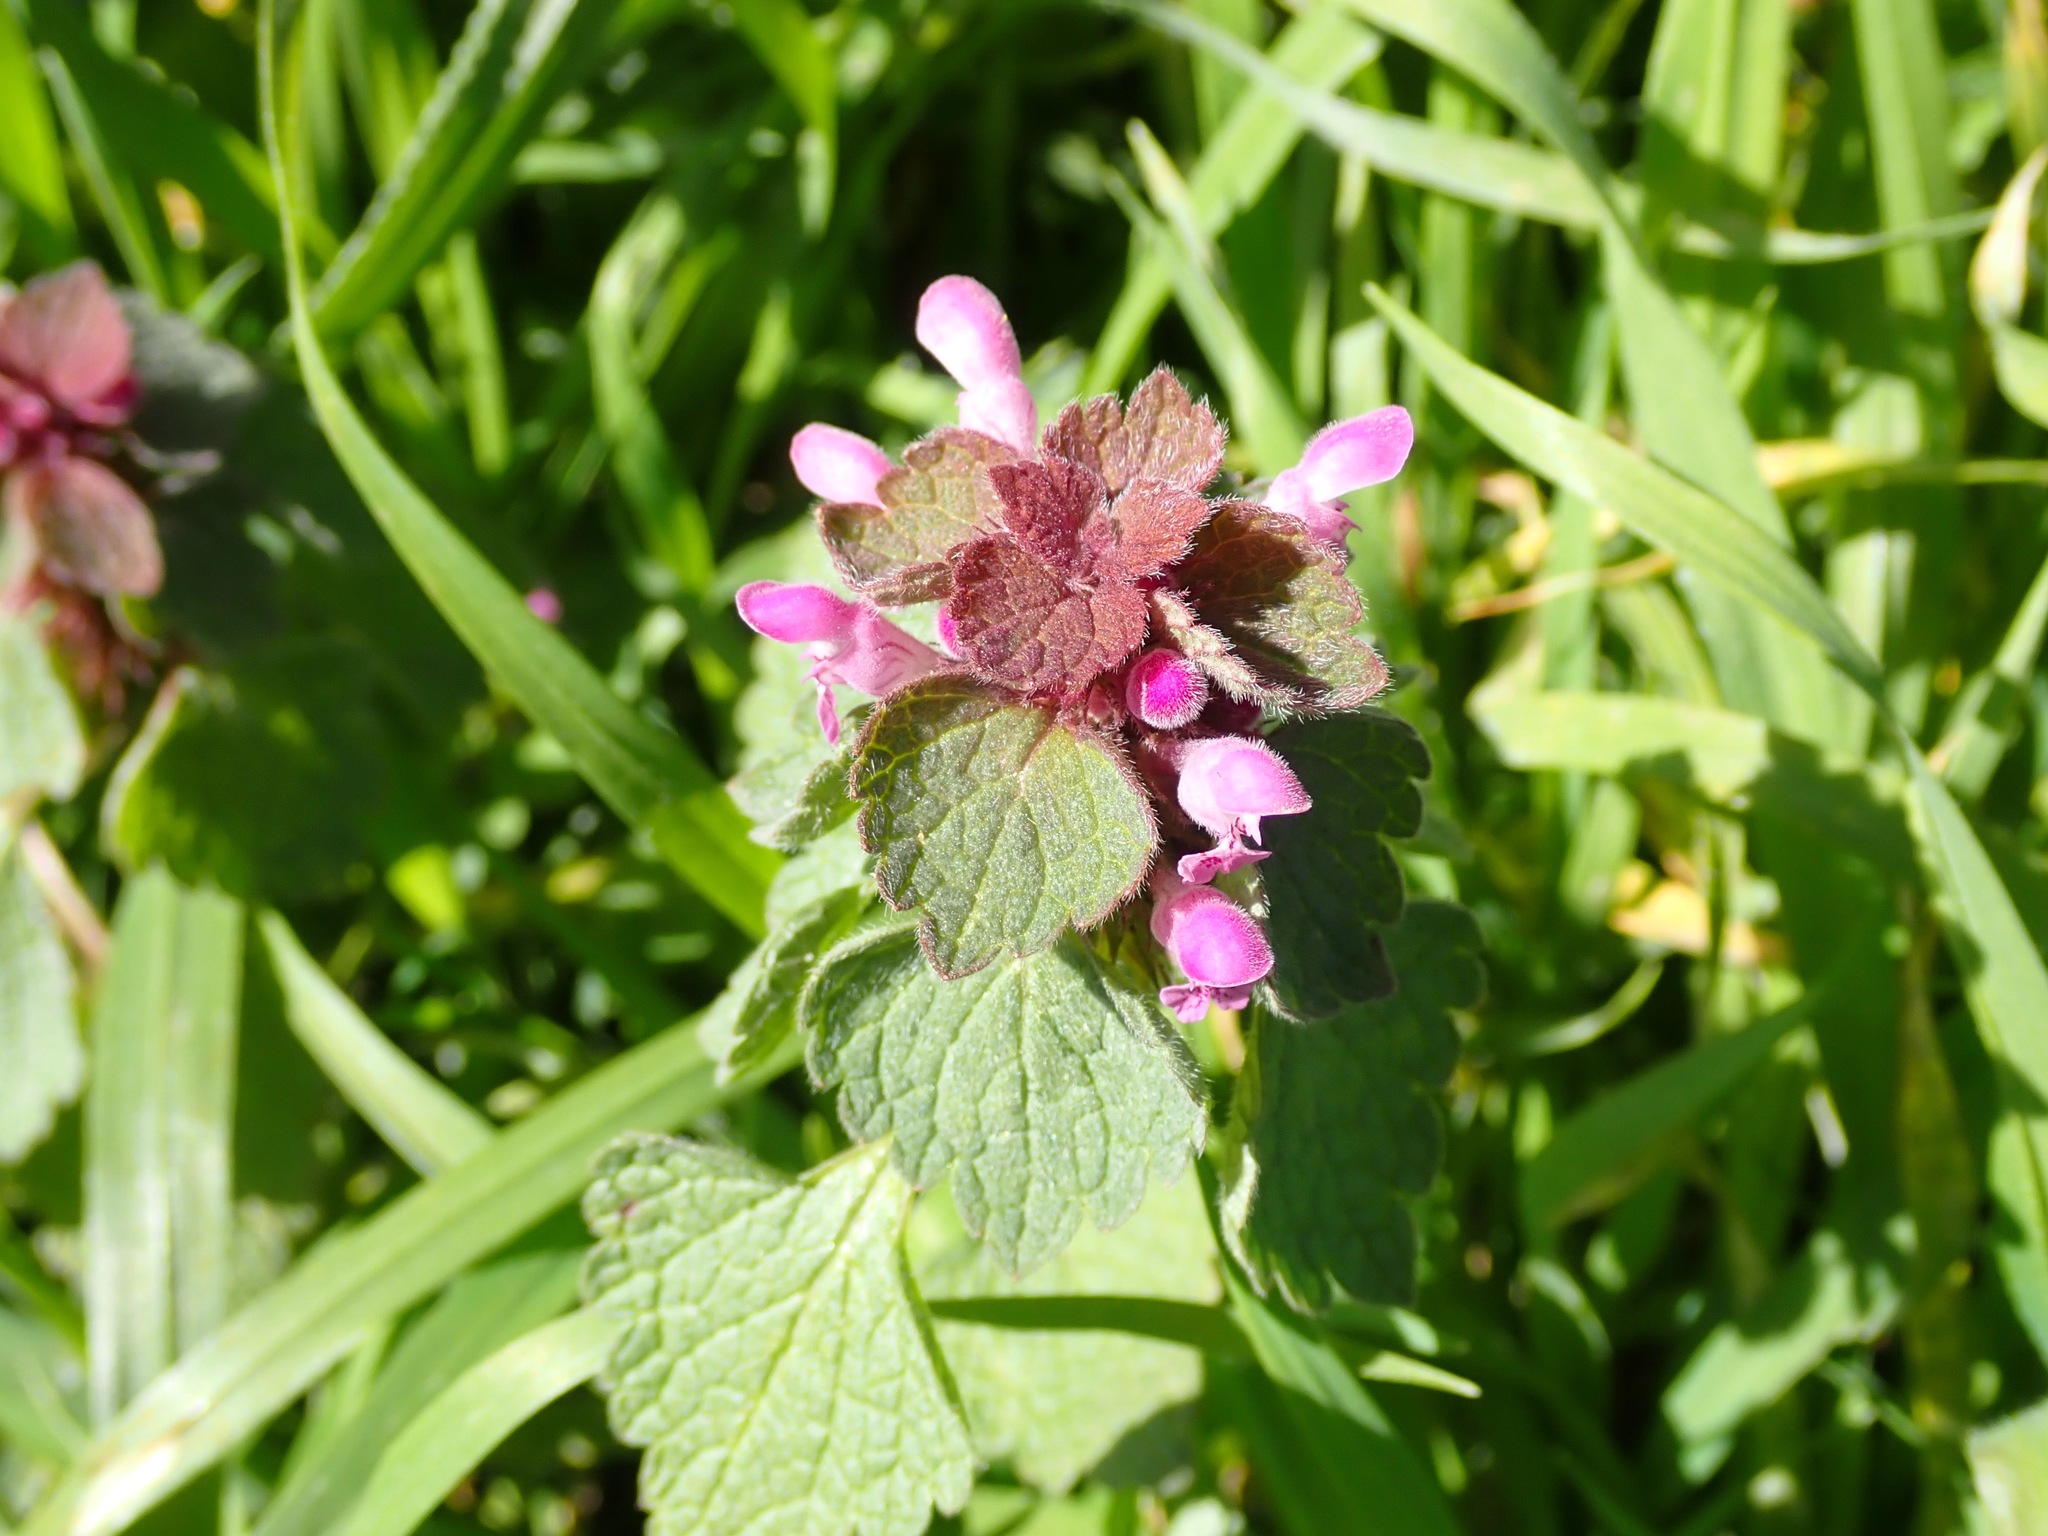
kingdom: Plantae
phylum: Tracheophyta
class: Magnoliopsida
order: Lamiales
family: Lamiaceae
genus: Lamium
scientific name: Lamium purpureum
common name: Red dead-nettle
